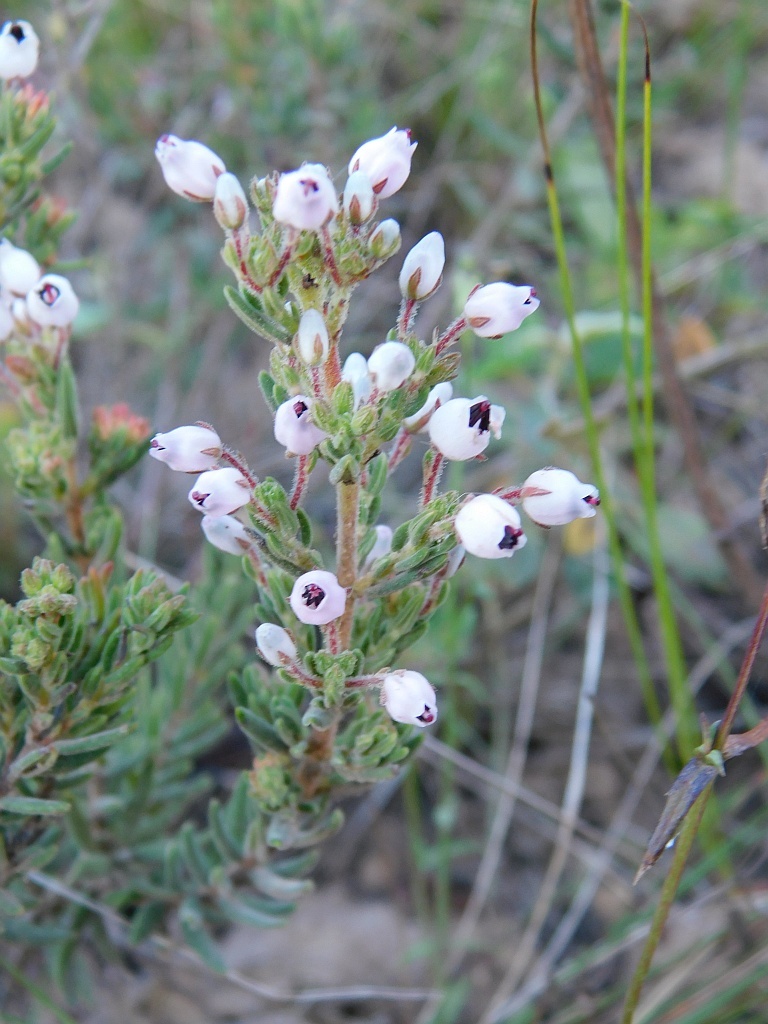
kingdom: Plantae
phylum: Tracheophyta
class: Magnoliopsida
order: Ericales
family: Ericaceae
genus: Erica
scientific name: Erica hirta
